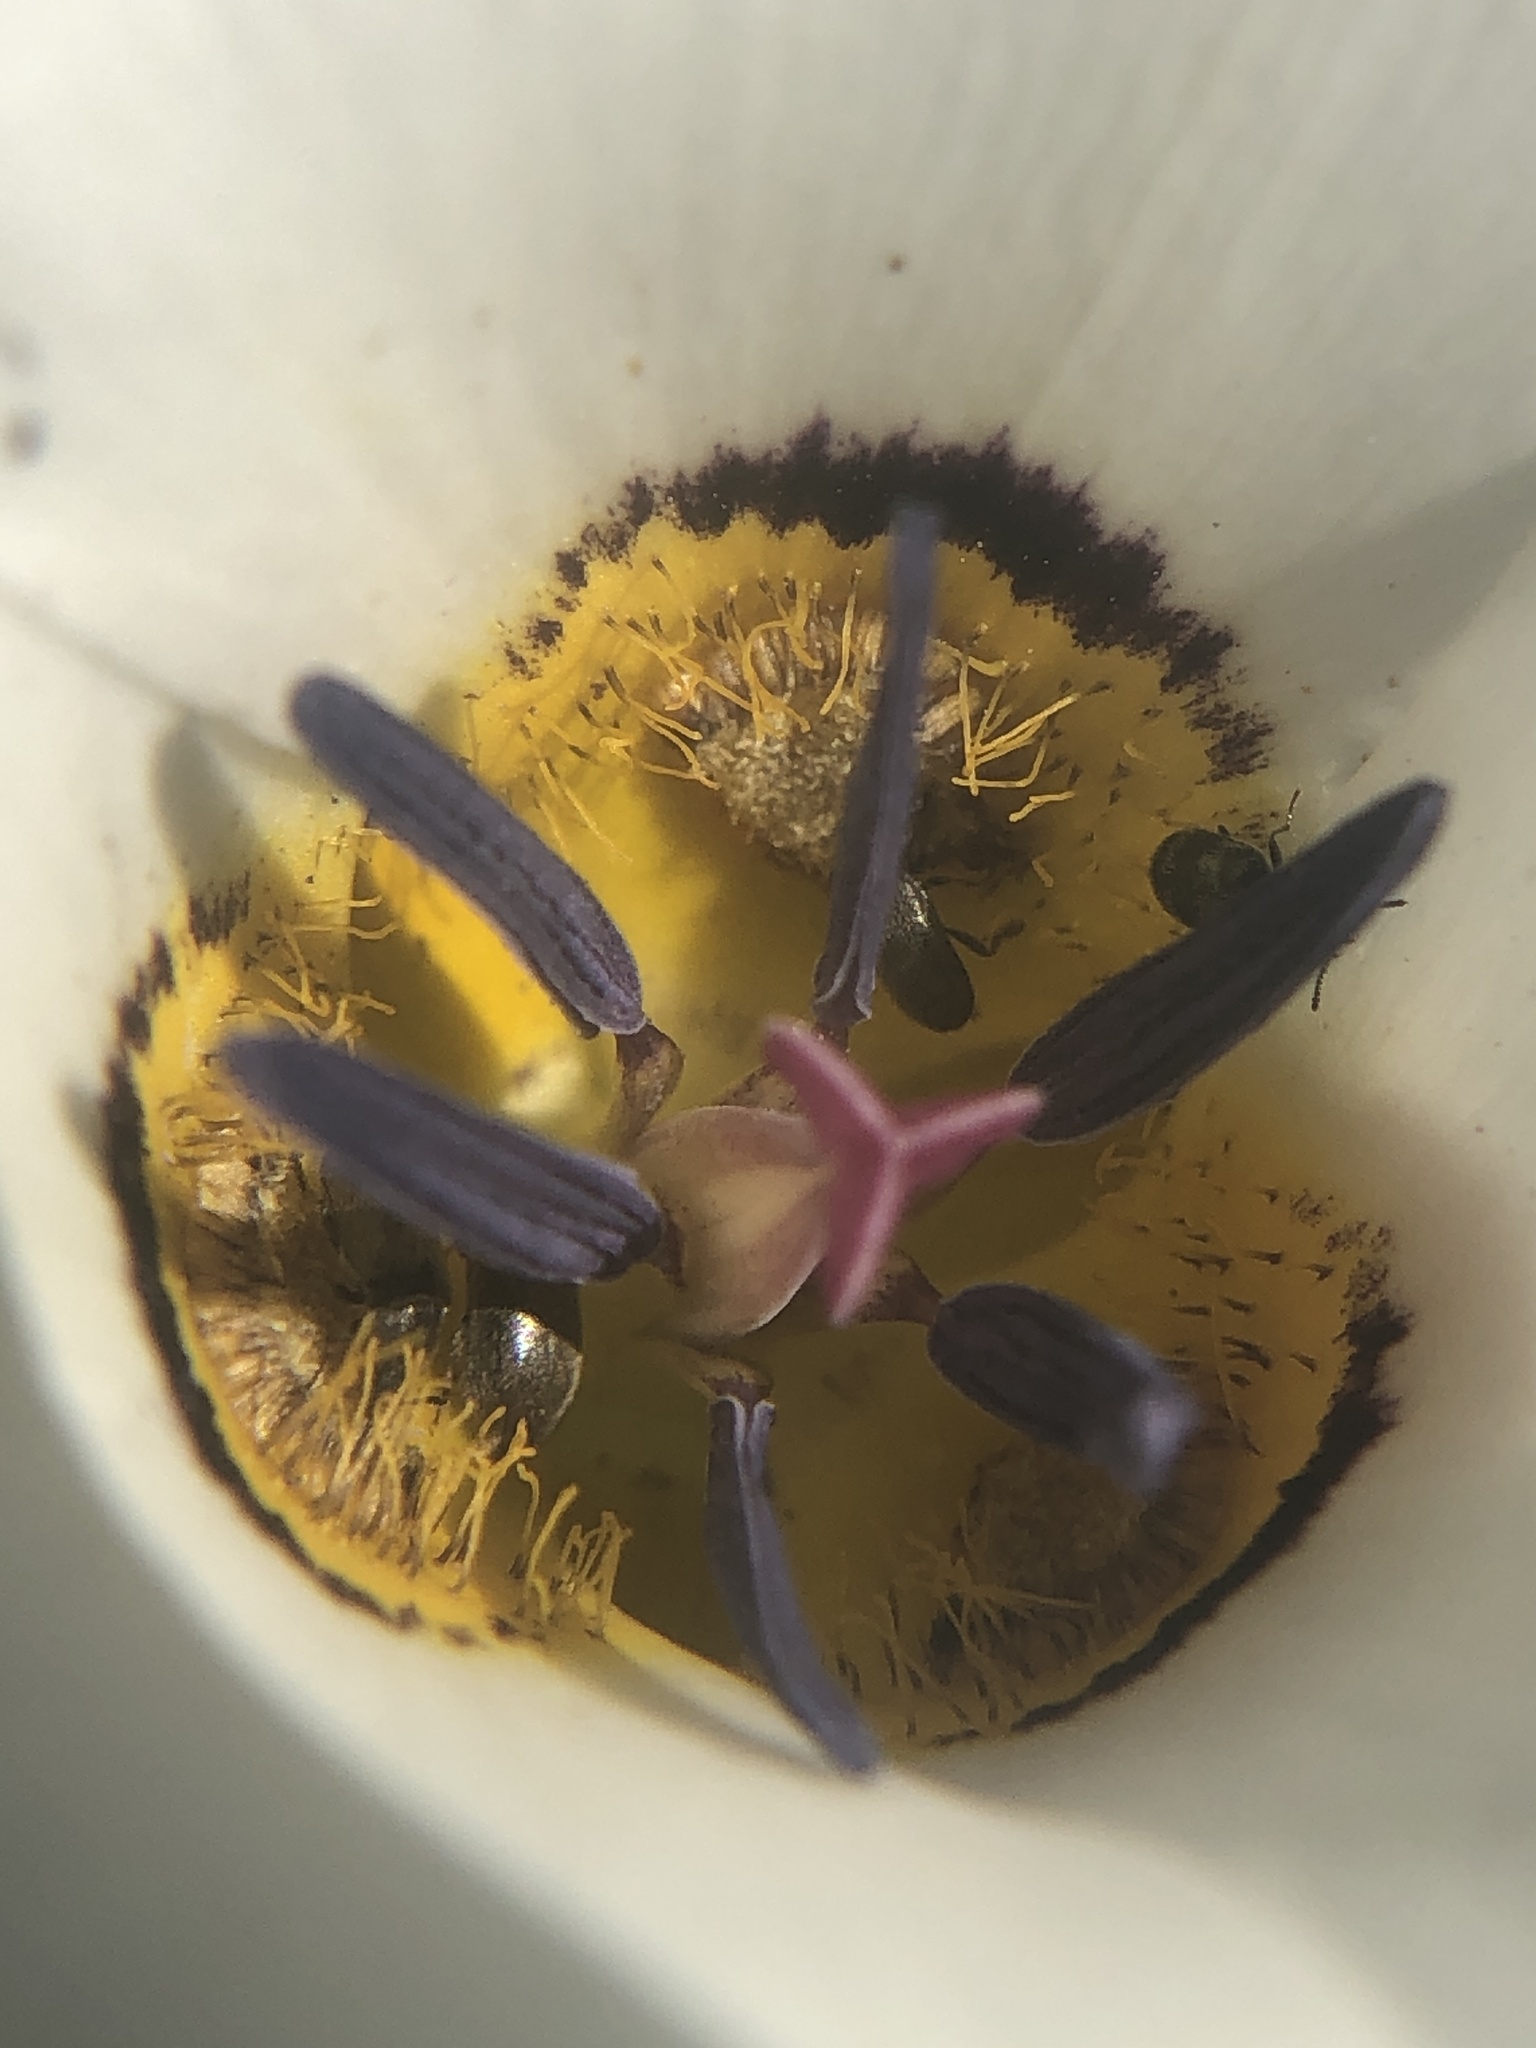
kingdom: Plantae
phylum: Tracheophyta
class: Liliopsida
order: Liliales
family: Liliaceae
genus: Calochortus
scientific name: Calochortus bruneaunis
